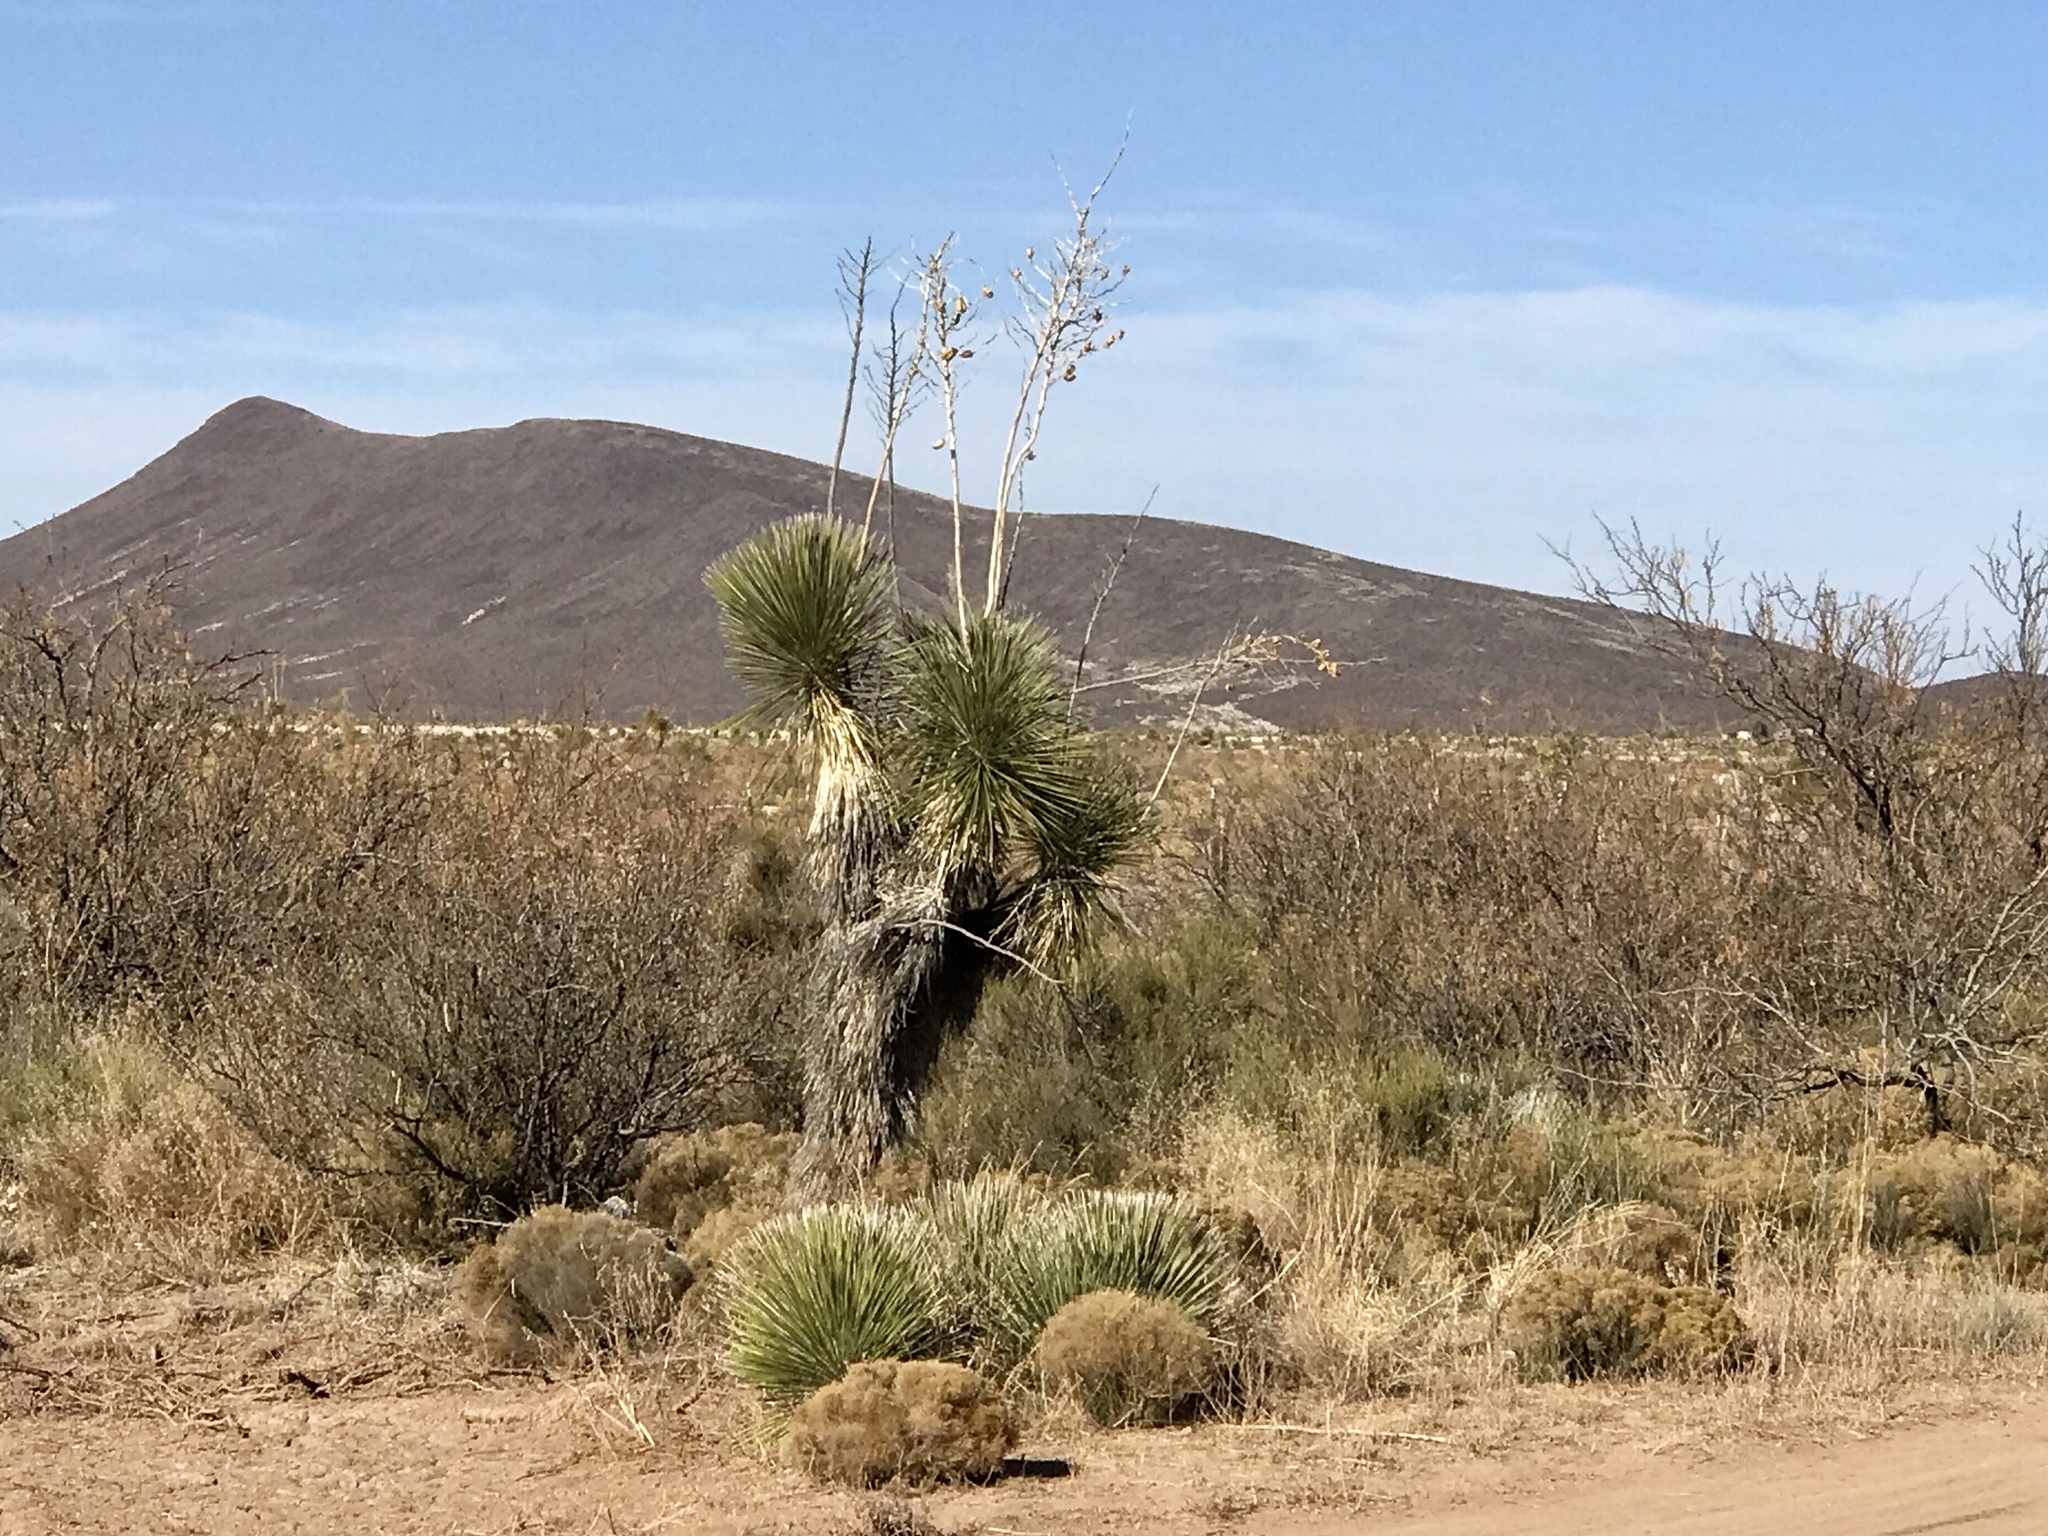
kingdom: Plantae
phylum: Tracheophyta
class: Liliopsida
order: Asparagales
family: Asparagaceae
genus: Yucca
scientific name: Yucca elata
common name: Palmella
